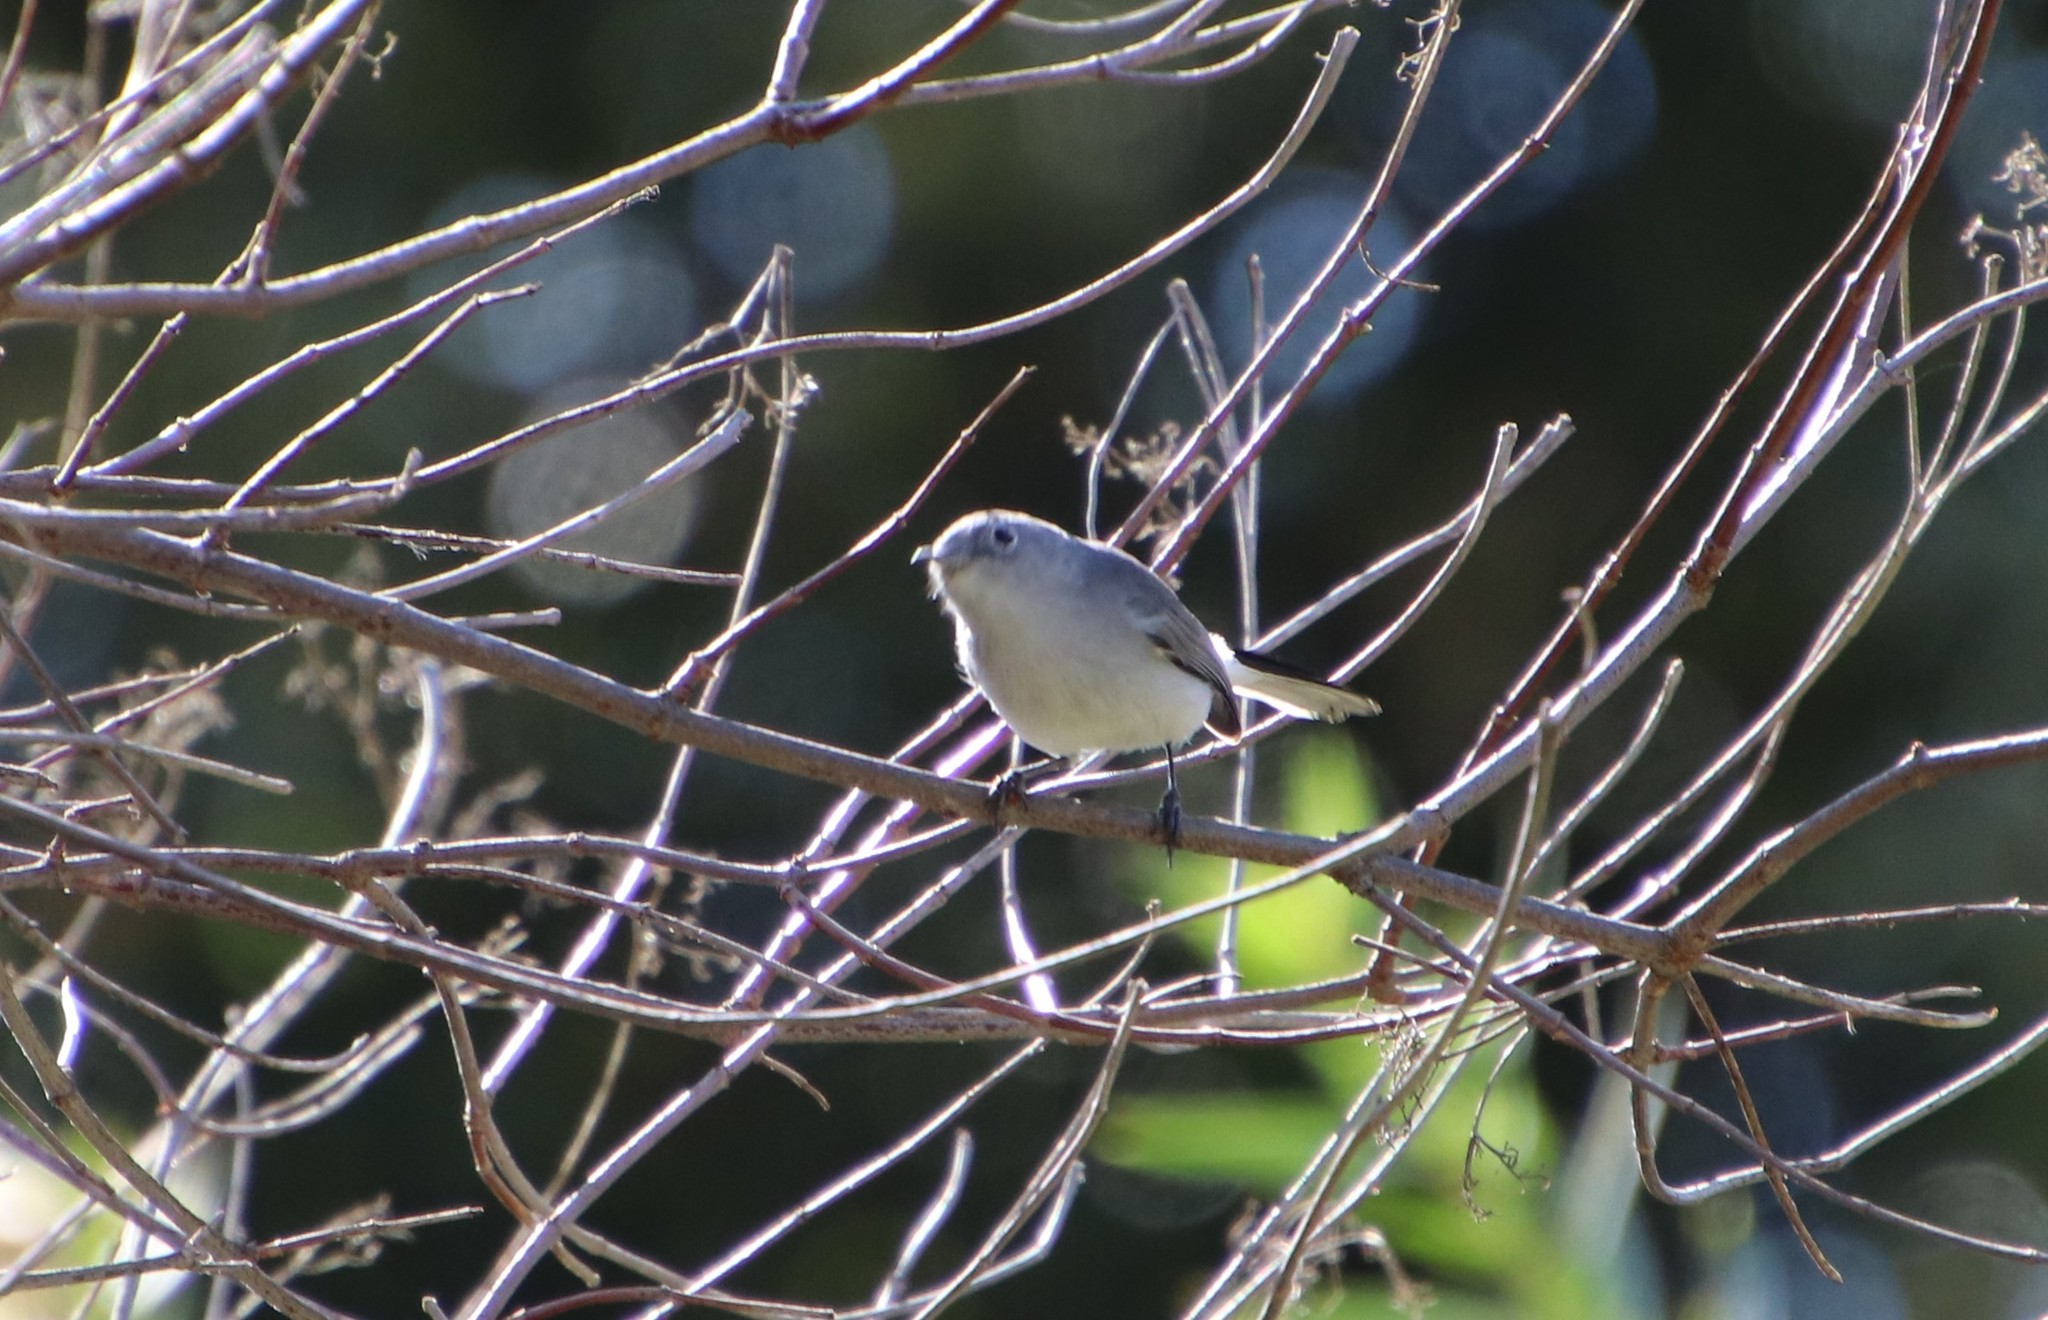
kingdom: Animalia
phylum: Chordata
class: Aves
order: Passeriformes
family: Polioptilidae
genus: Polioptila
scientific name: Polioptila caerulea
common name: Blue-gray gnatcatcher
